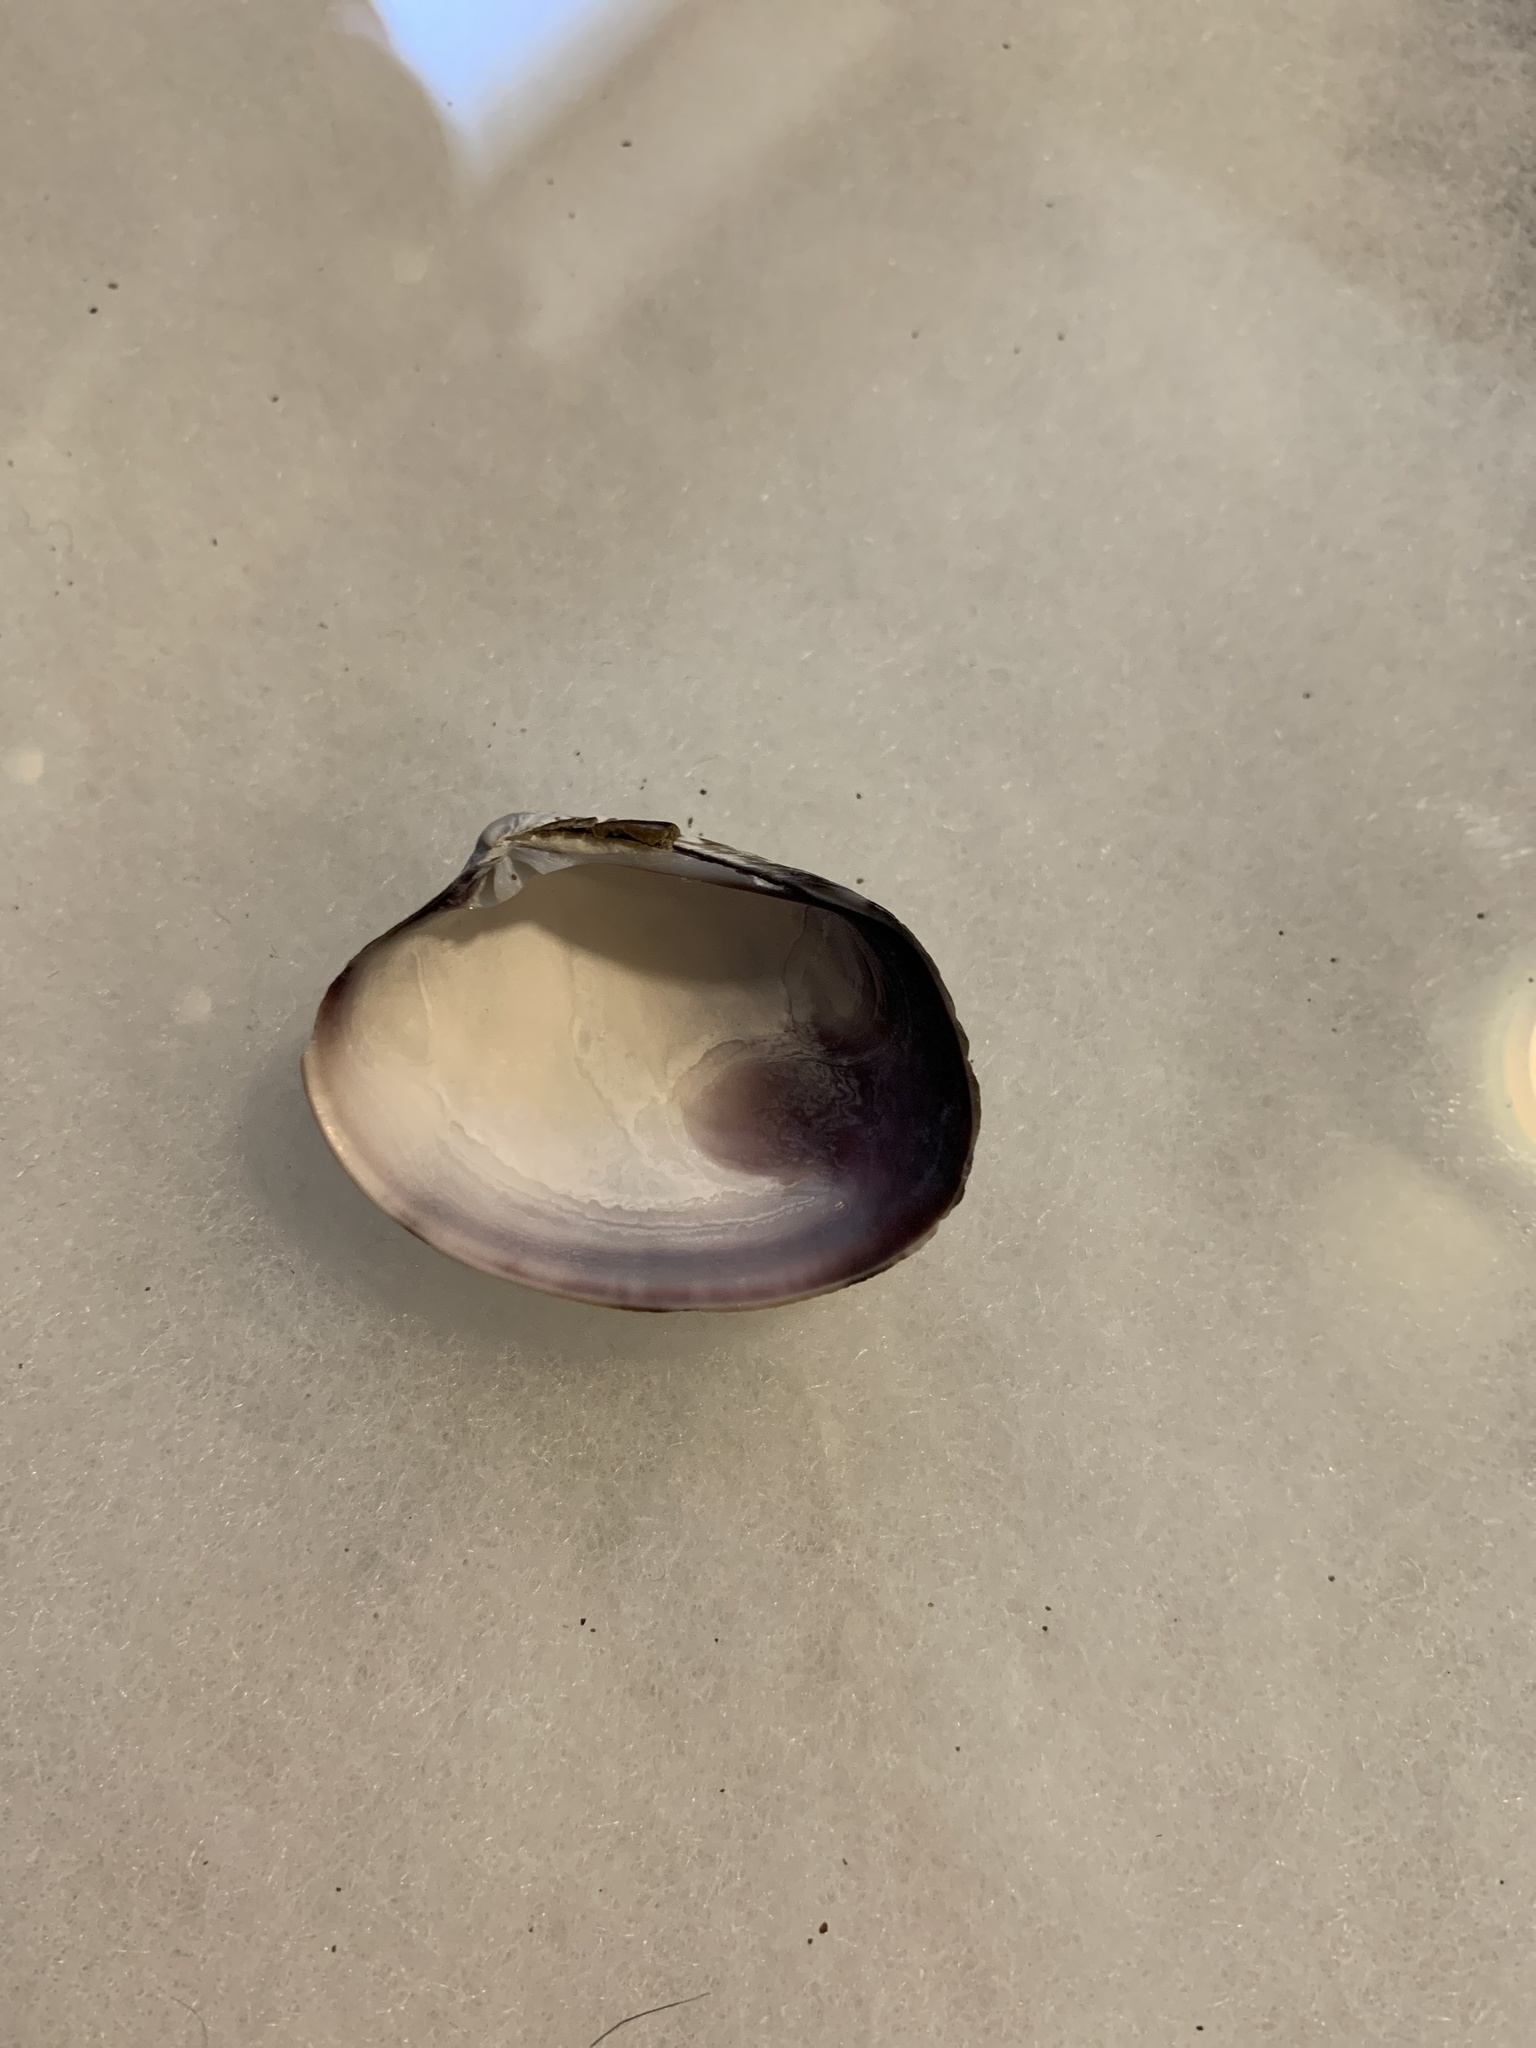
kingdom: Animalia
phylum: Mollusca
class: Bivalvia
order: Venerida
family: Veneridae
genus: Ruditapes
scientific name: Ruditapes philippinarum
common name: Manila clam
